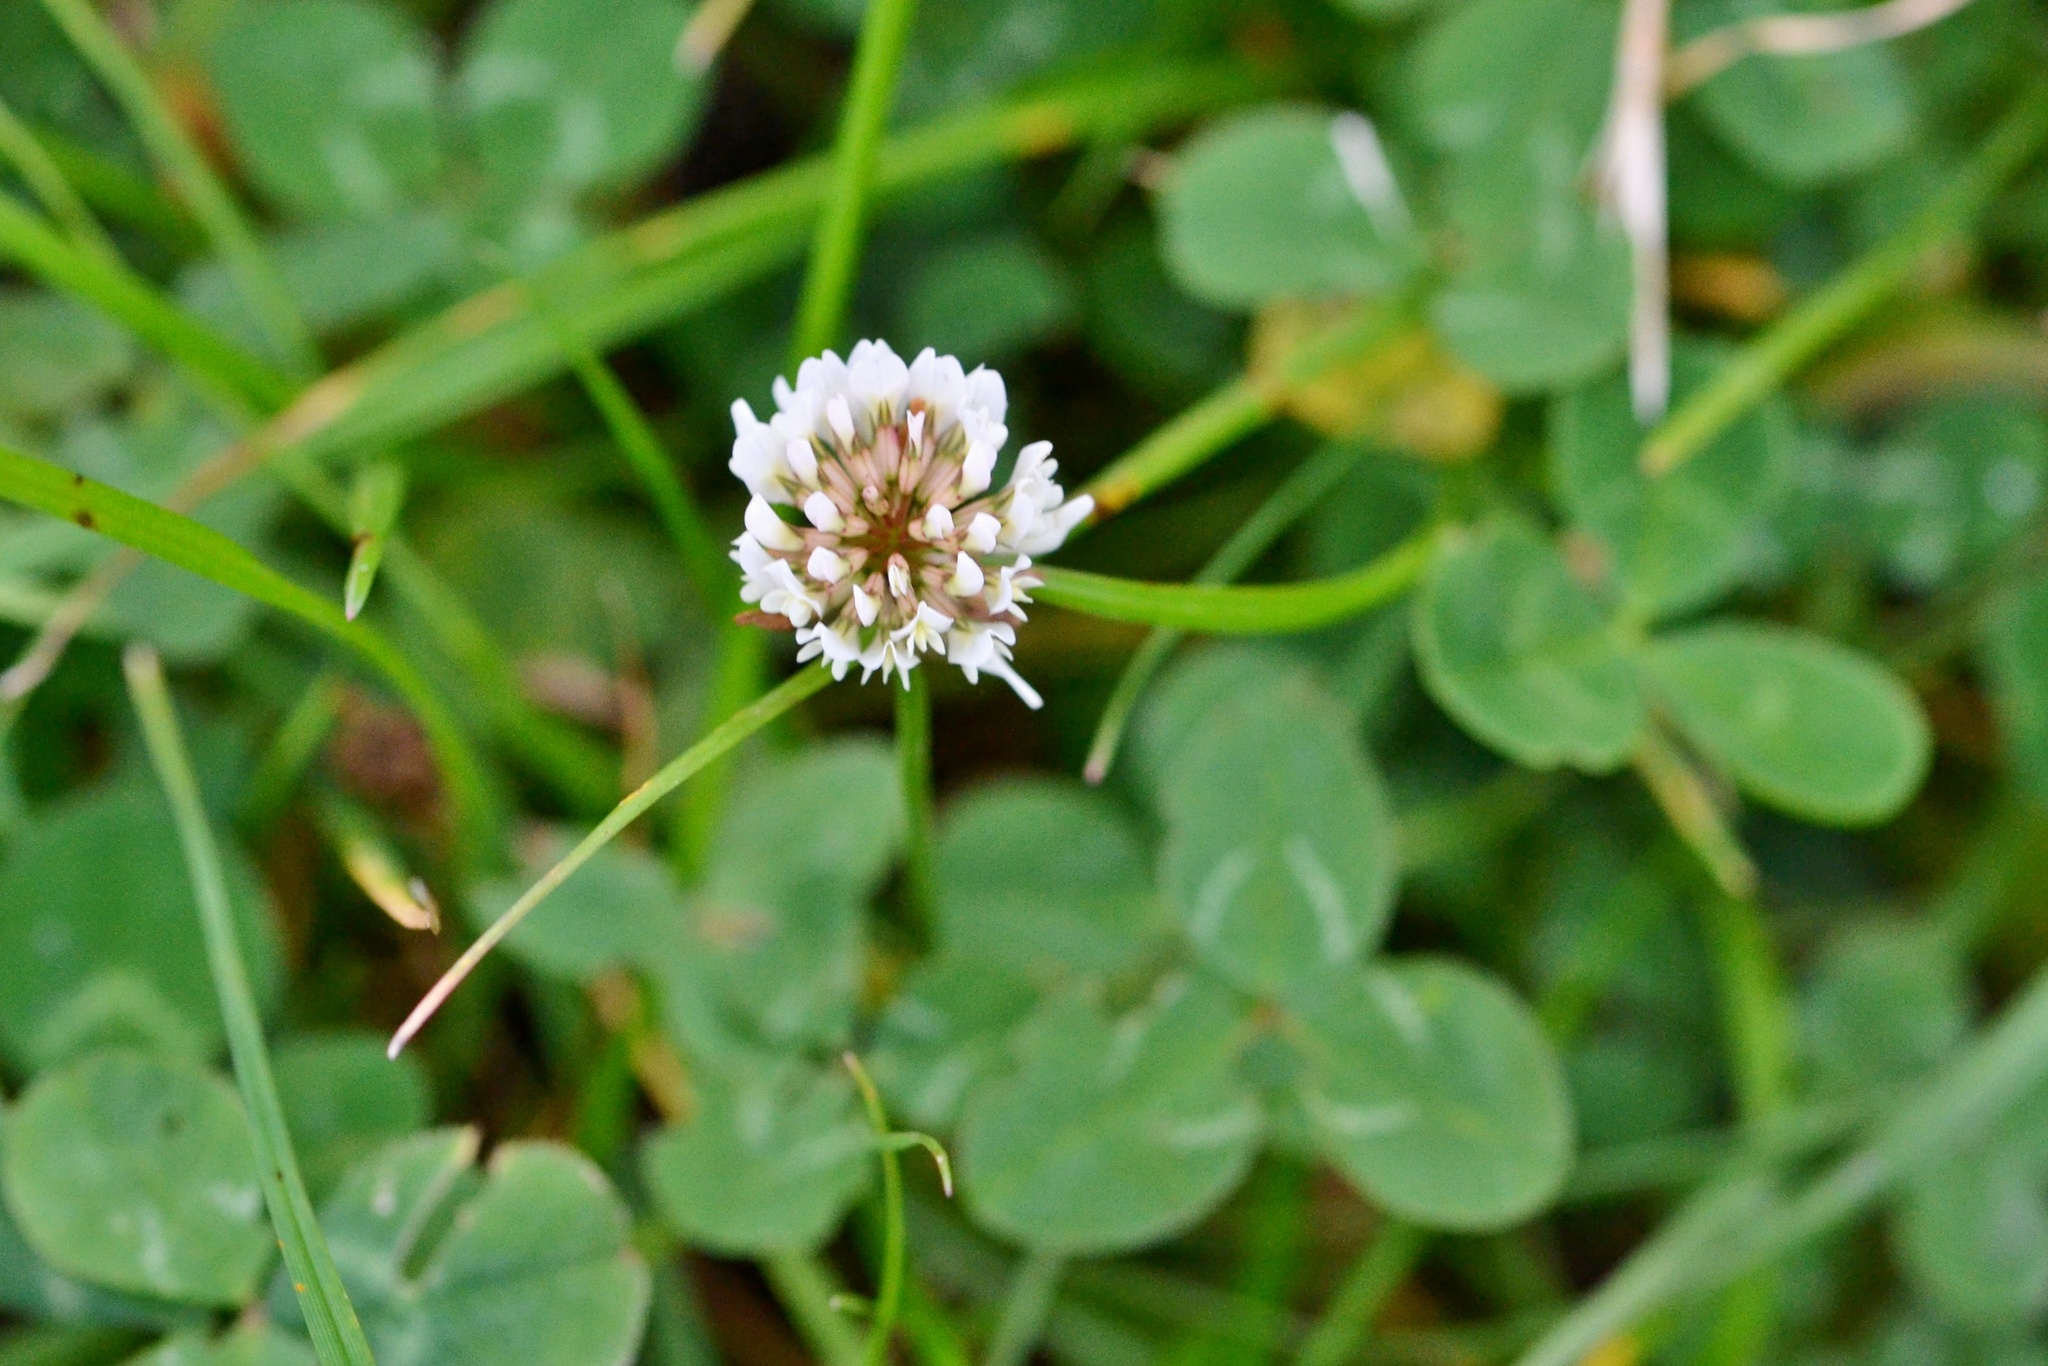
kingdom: Plantae
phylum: Tracheophyta
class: Magnoliopsida
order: Fabales
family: Fabaceae
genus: Trifolium
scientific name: Trifolium repens
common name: White clover
